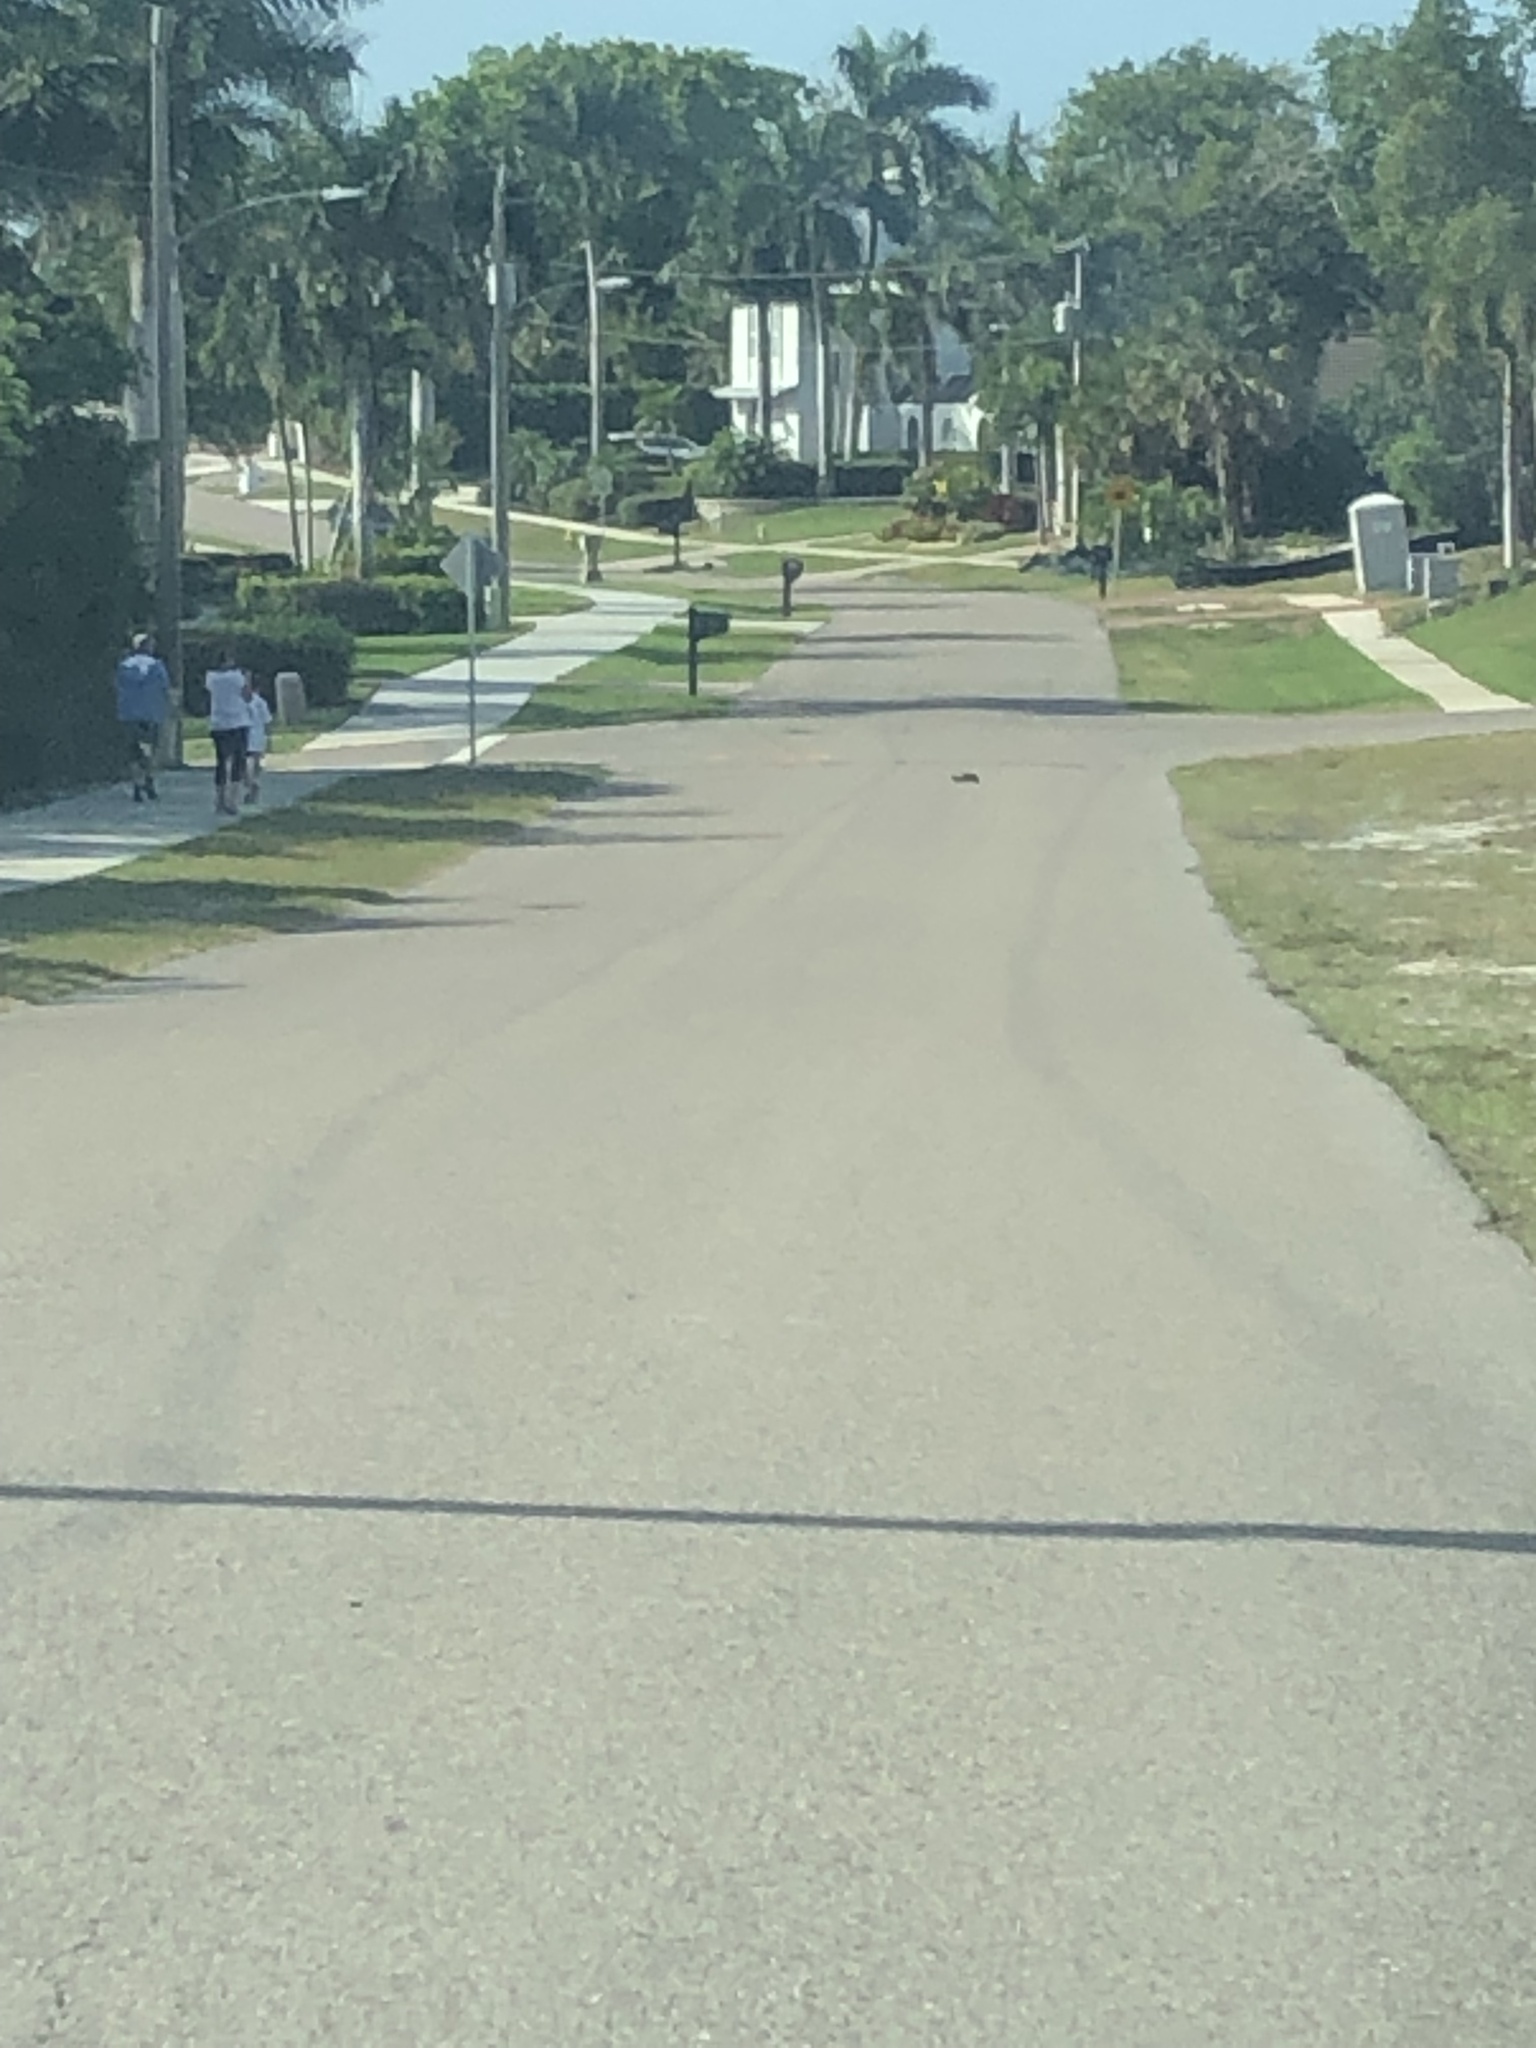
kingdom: Animalia
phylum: Chordata
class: Testudines
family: Testudinidae
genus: Gopherus
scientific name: Gopherus polyphemus
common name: Florida gopher tortoise
